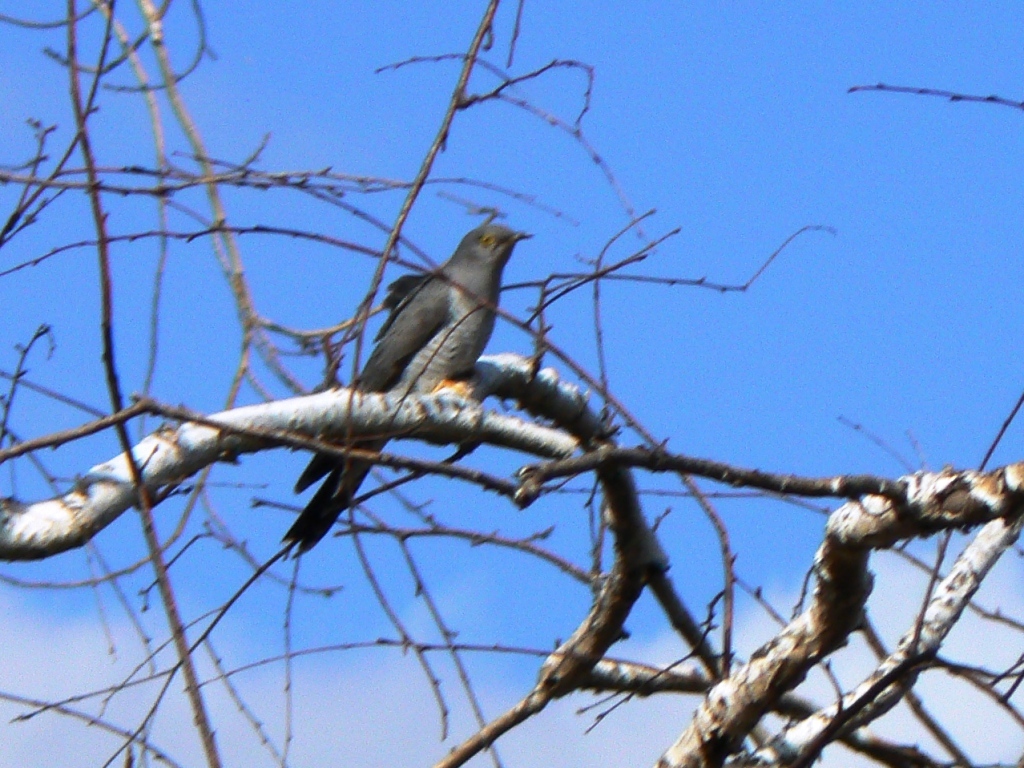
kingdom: Animalia
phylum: Chordata
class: Aves
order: Cuculiformes
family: Cuculidae
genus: Cuculus
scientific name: Cuculus canorus
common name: Common cuckoo
